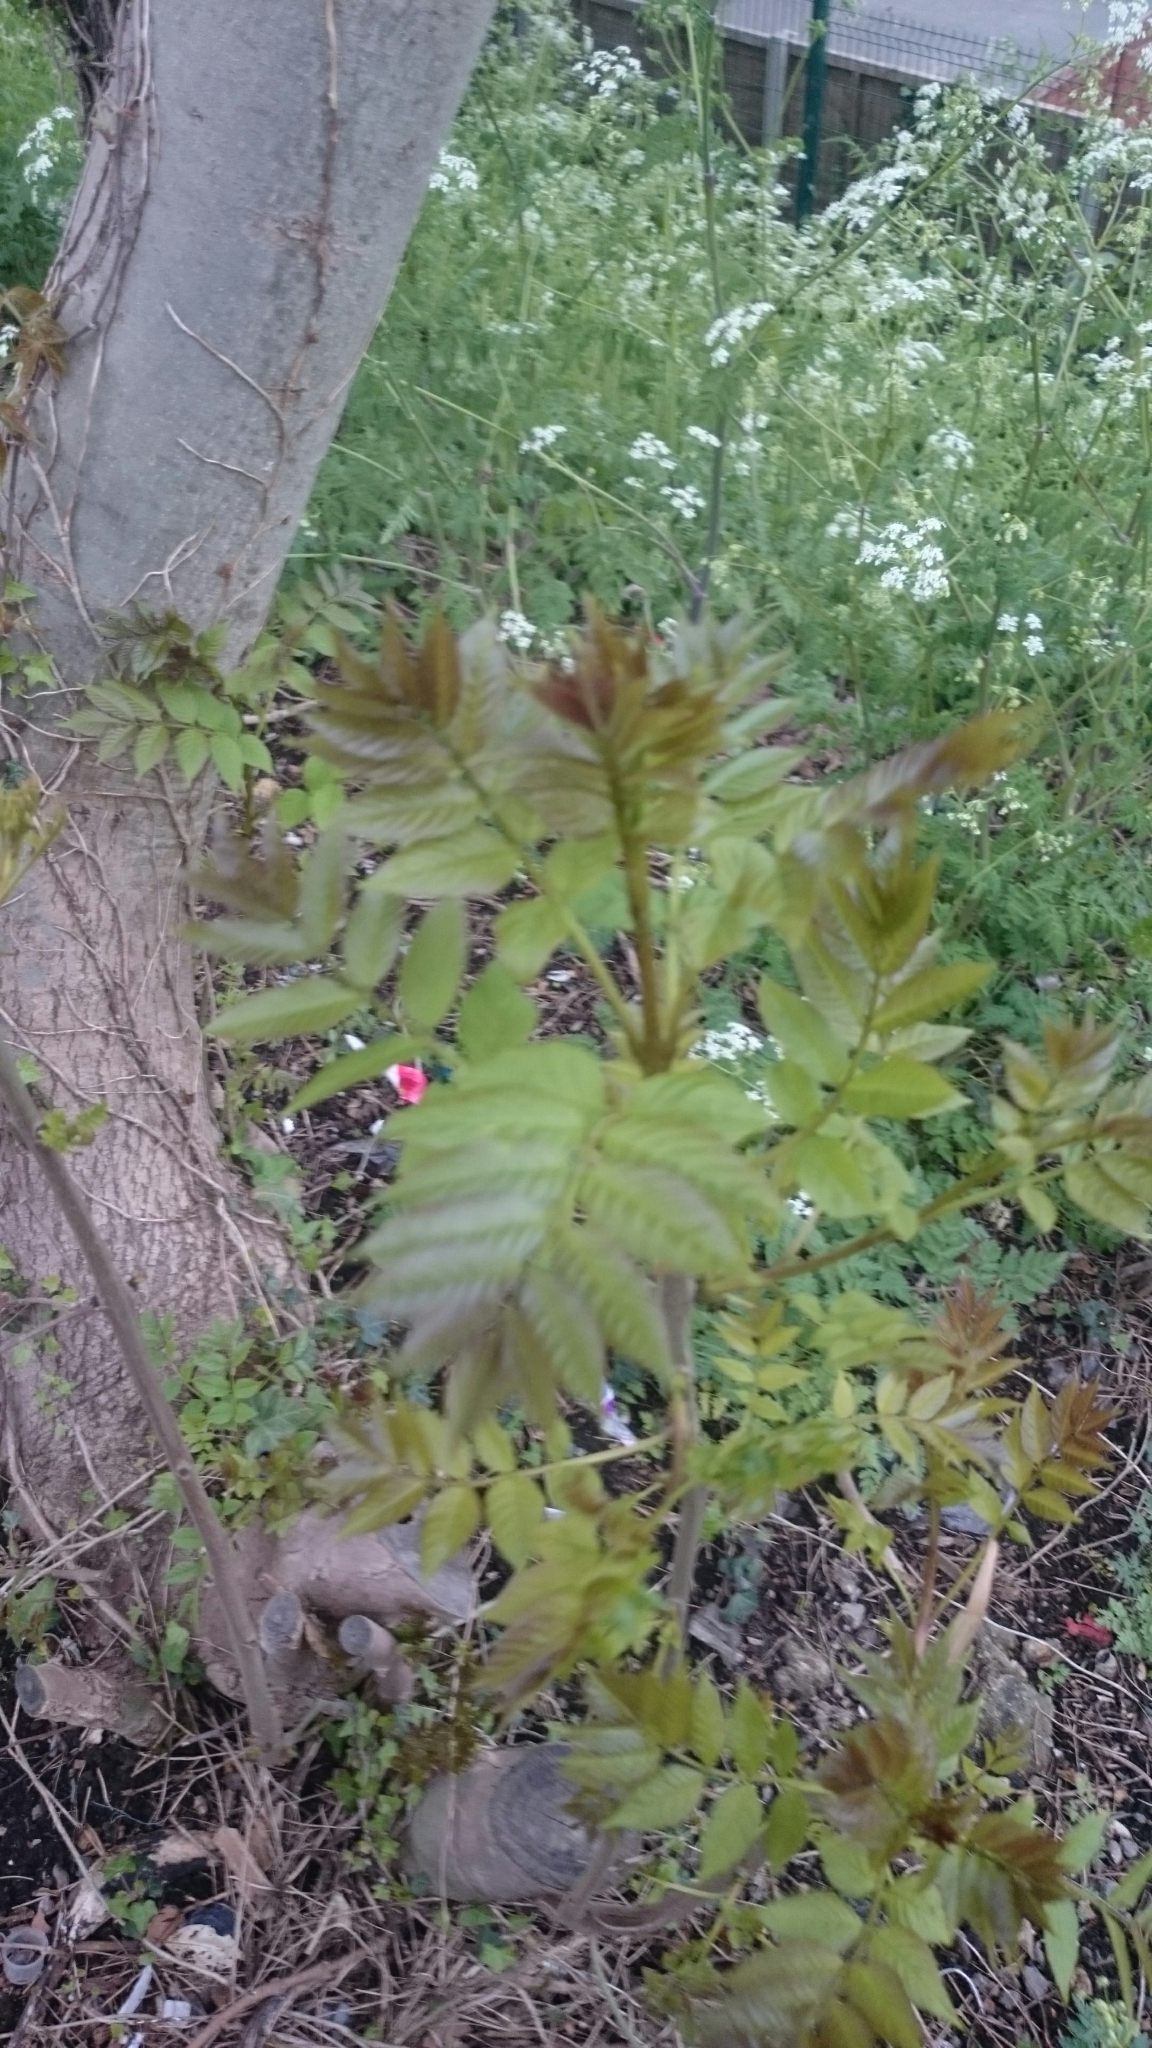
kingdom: Plantae
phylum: Tracheophyta
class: Magnoliopsida
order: Lamiales
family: Oleaceae
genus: Fraxinus
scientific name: Fraxinus excelsior
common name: European ash
